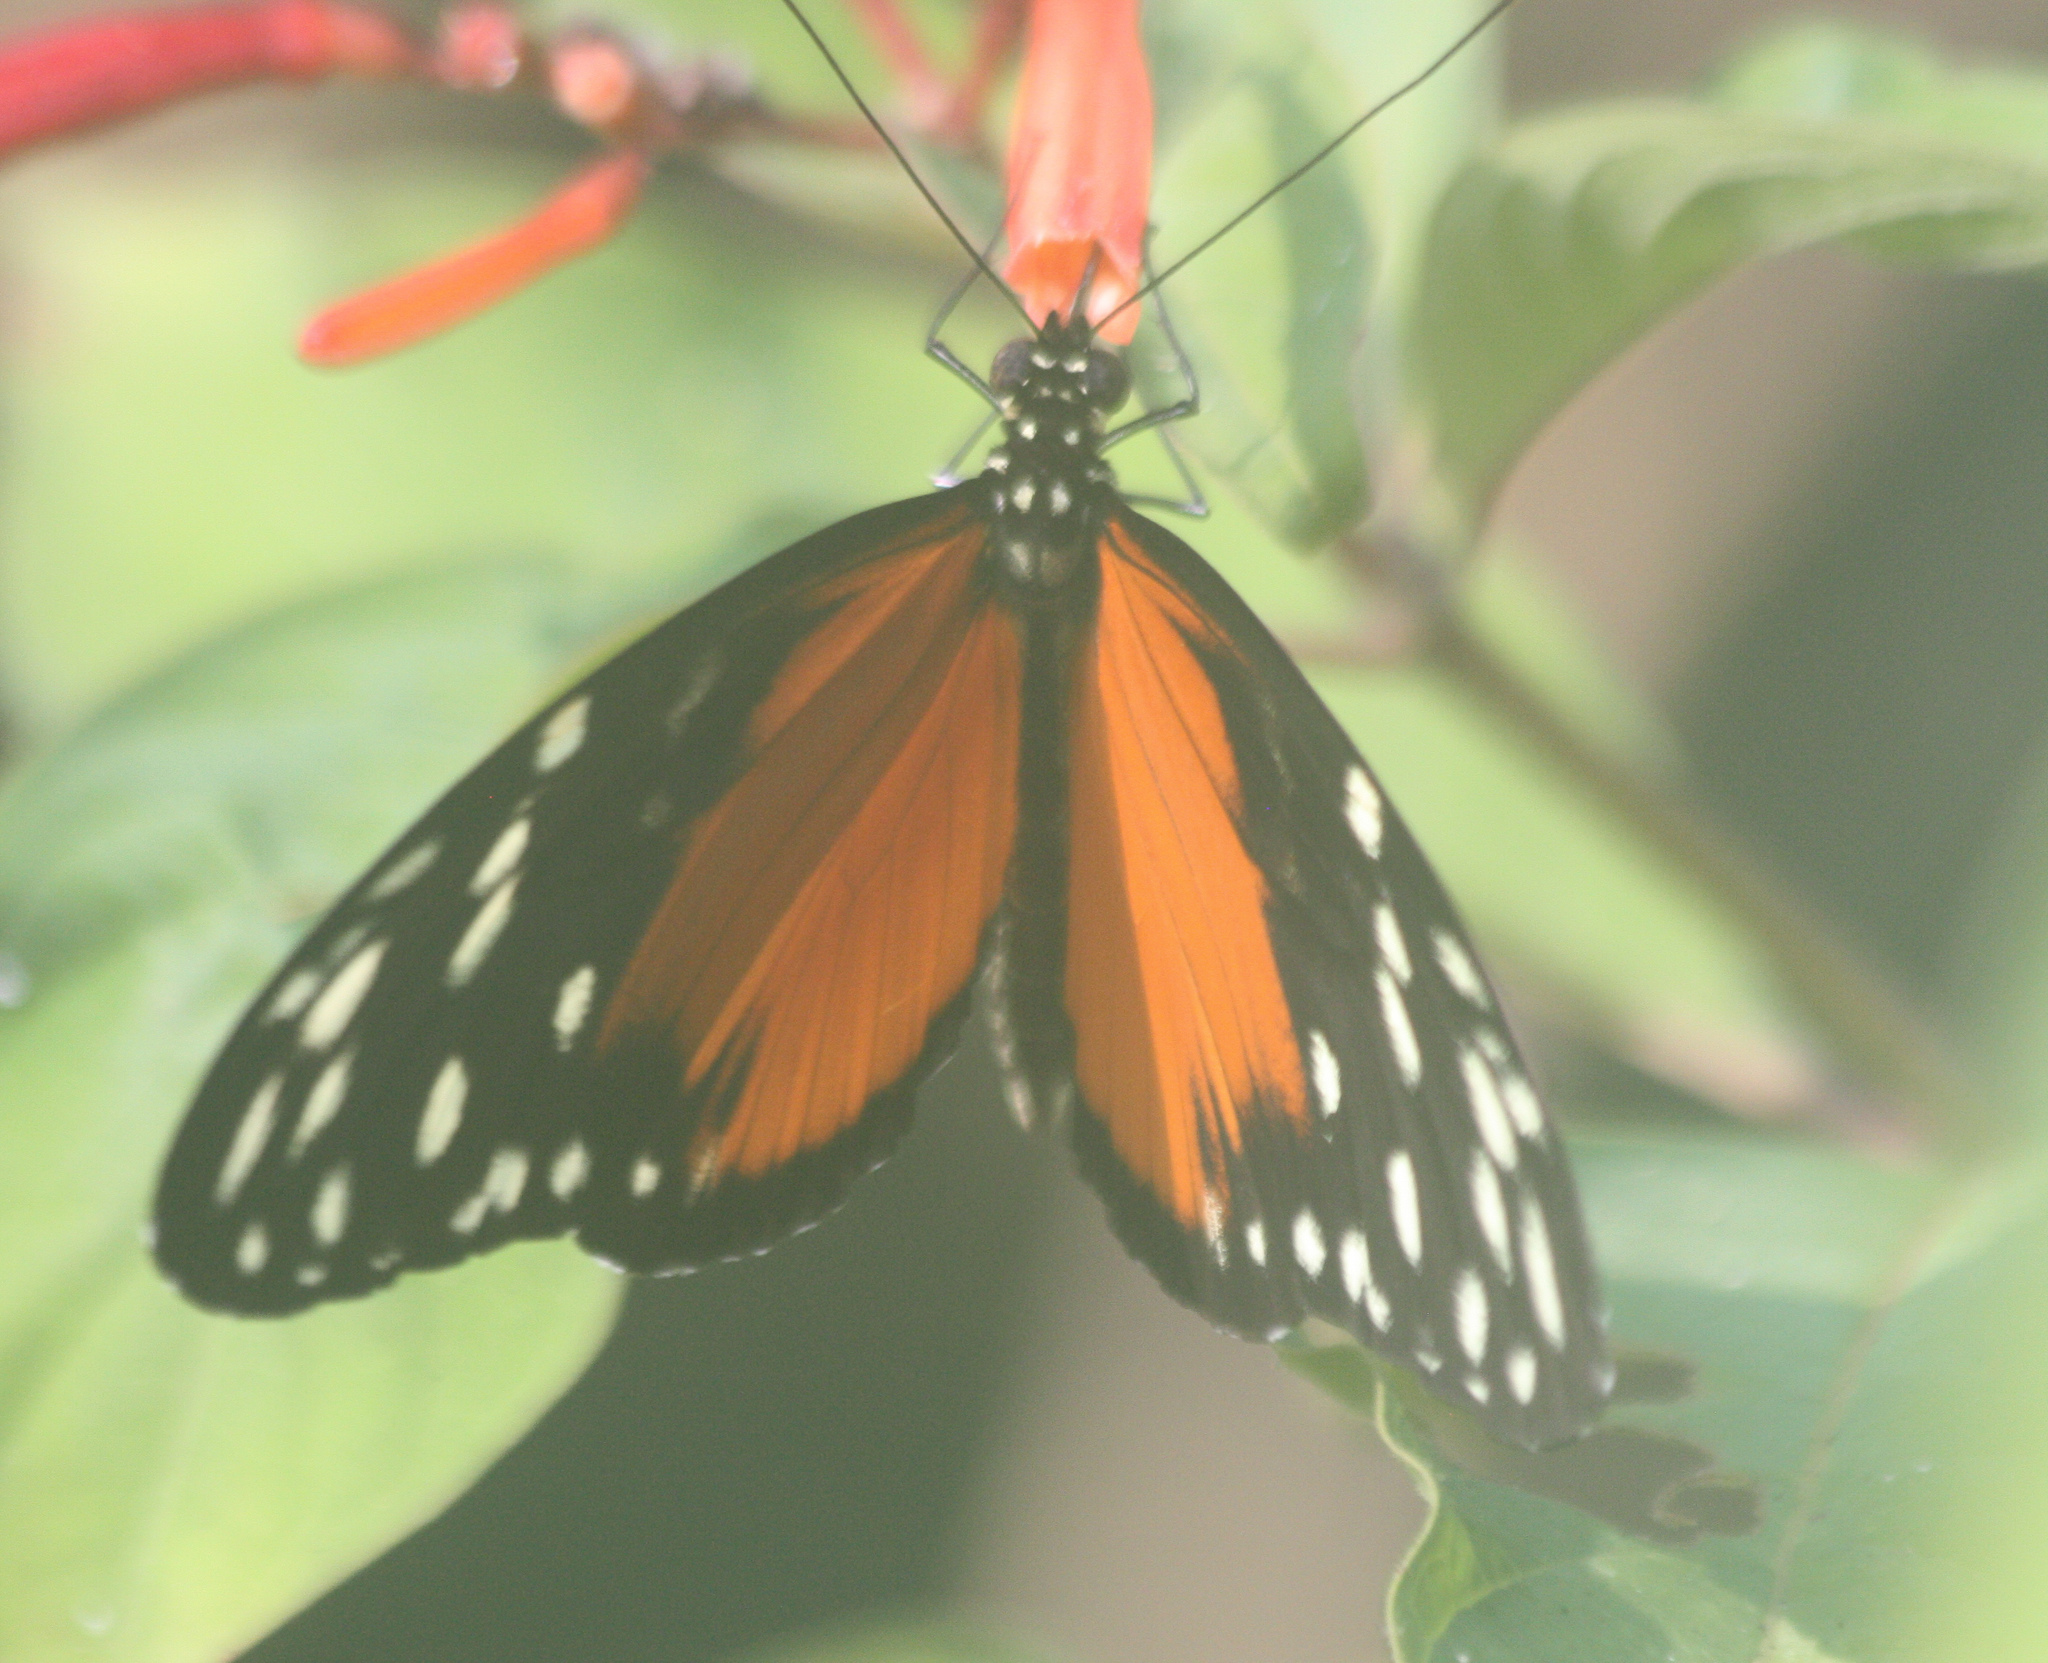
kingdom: Animalia
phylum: Arthropoda
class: Insecta
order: Lepidoptera
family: Nymphalidae
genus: Heliconius
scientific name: Heliconius hecale
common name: Tiger longwing
